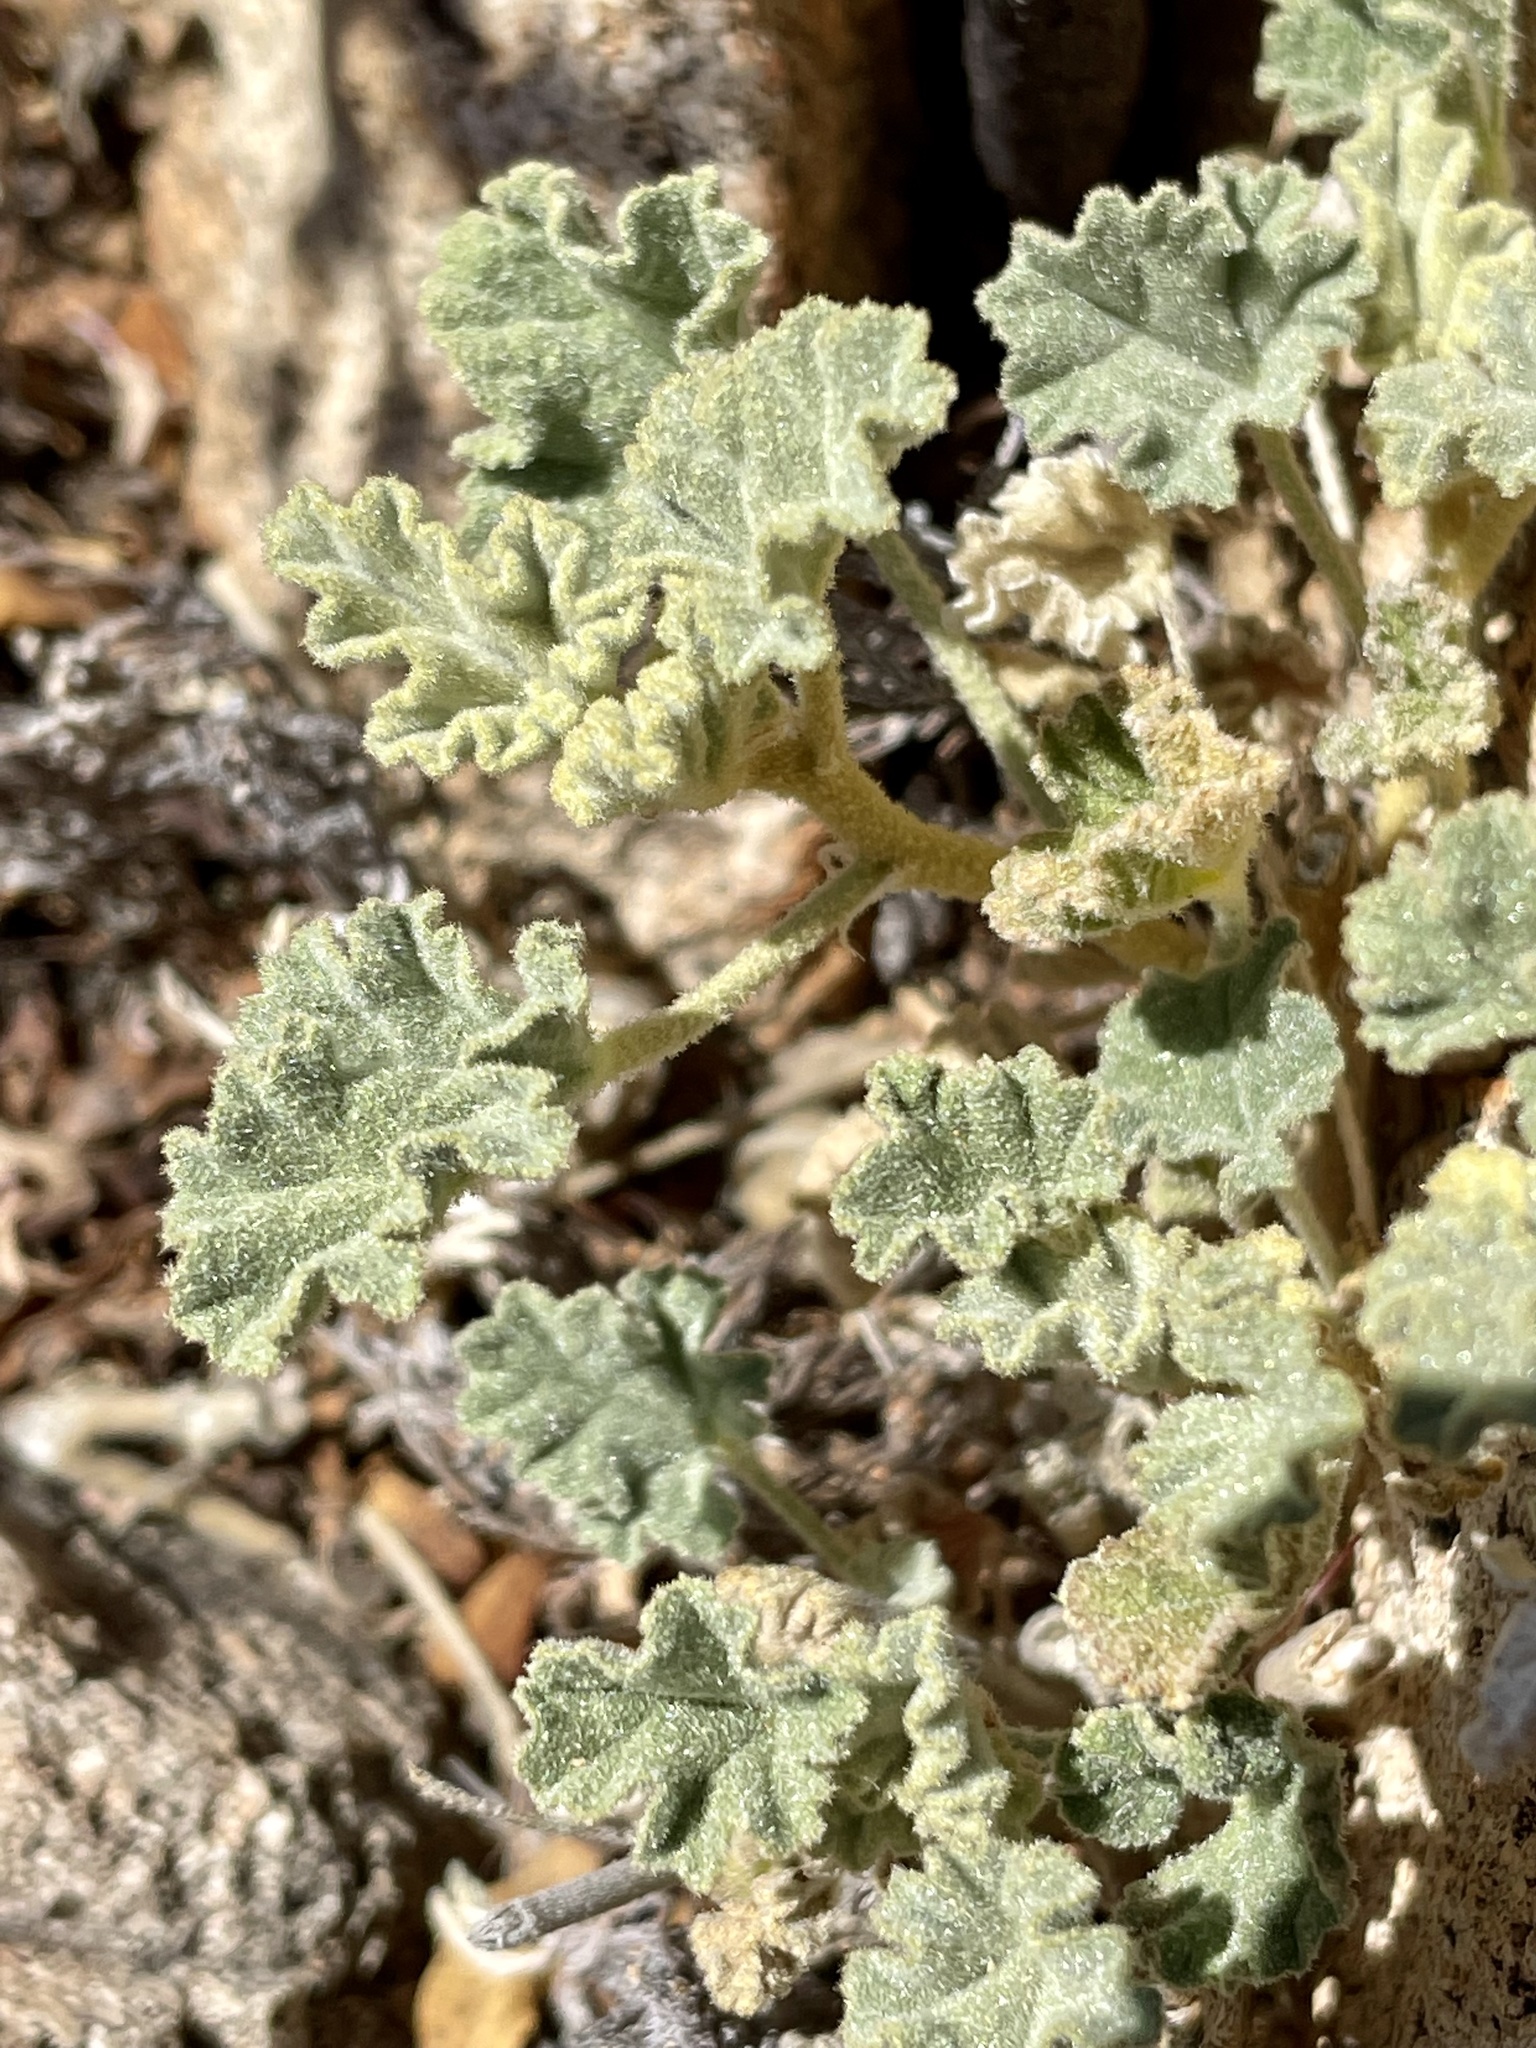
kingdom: Plantae
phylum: Tracheophyta
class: Magnoliopsida
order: Malvales
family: Malvaceae
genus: Sphaeralcea
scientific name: Sphaeralcea ambigua
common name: Apricot globe-mallow
